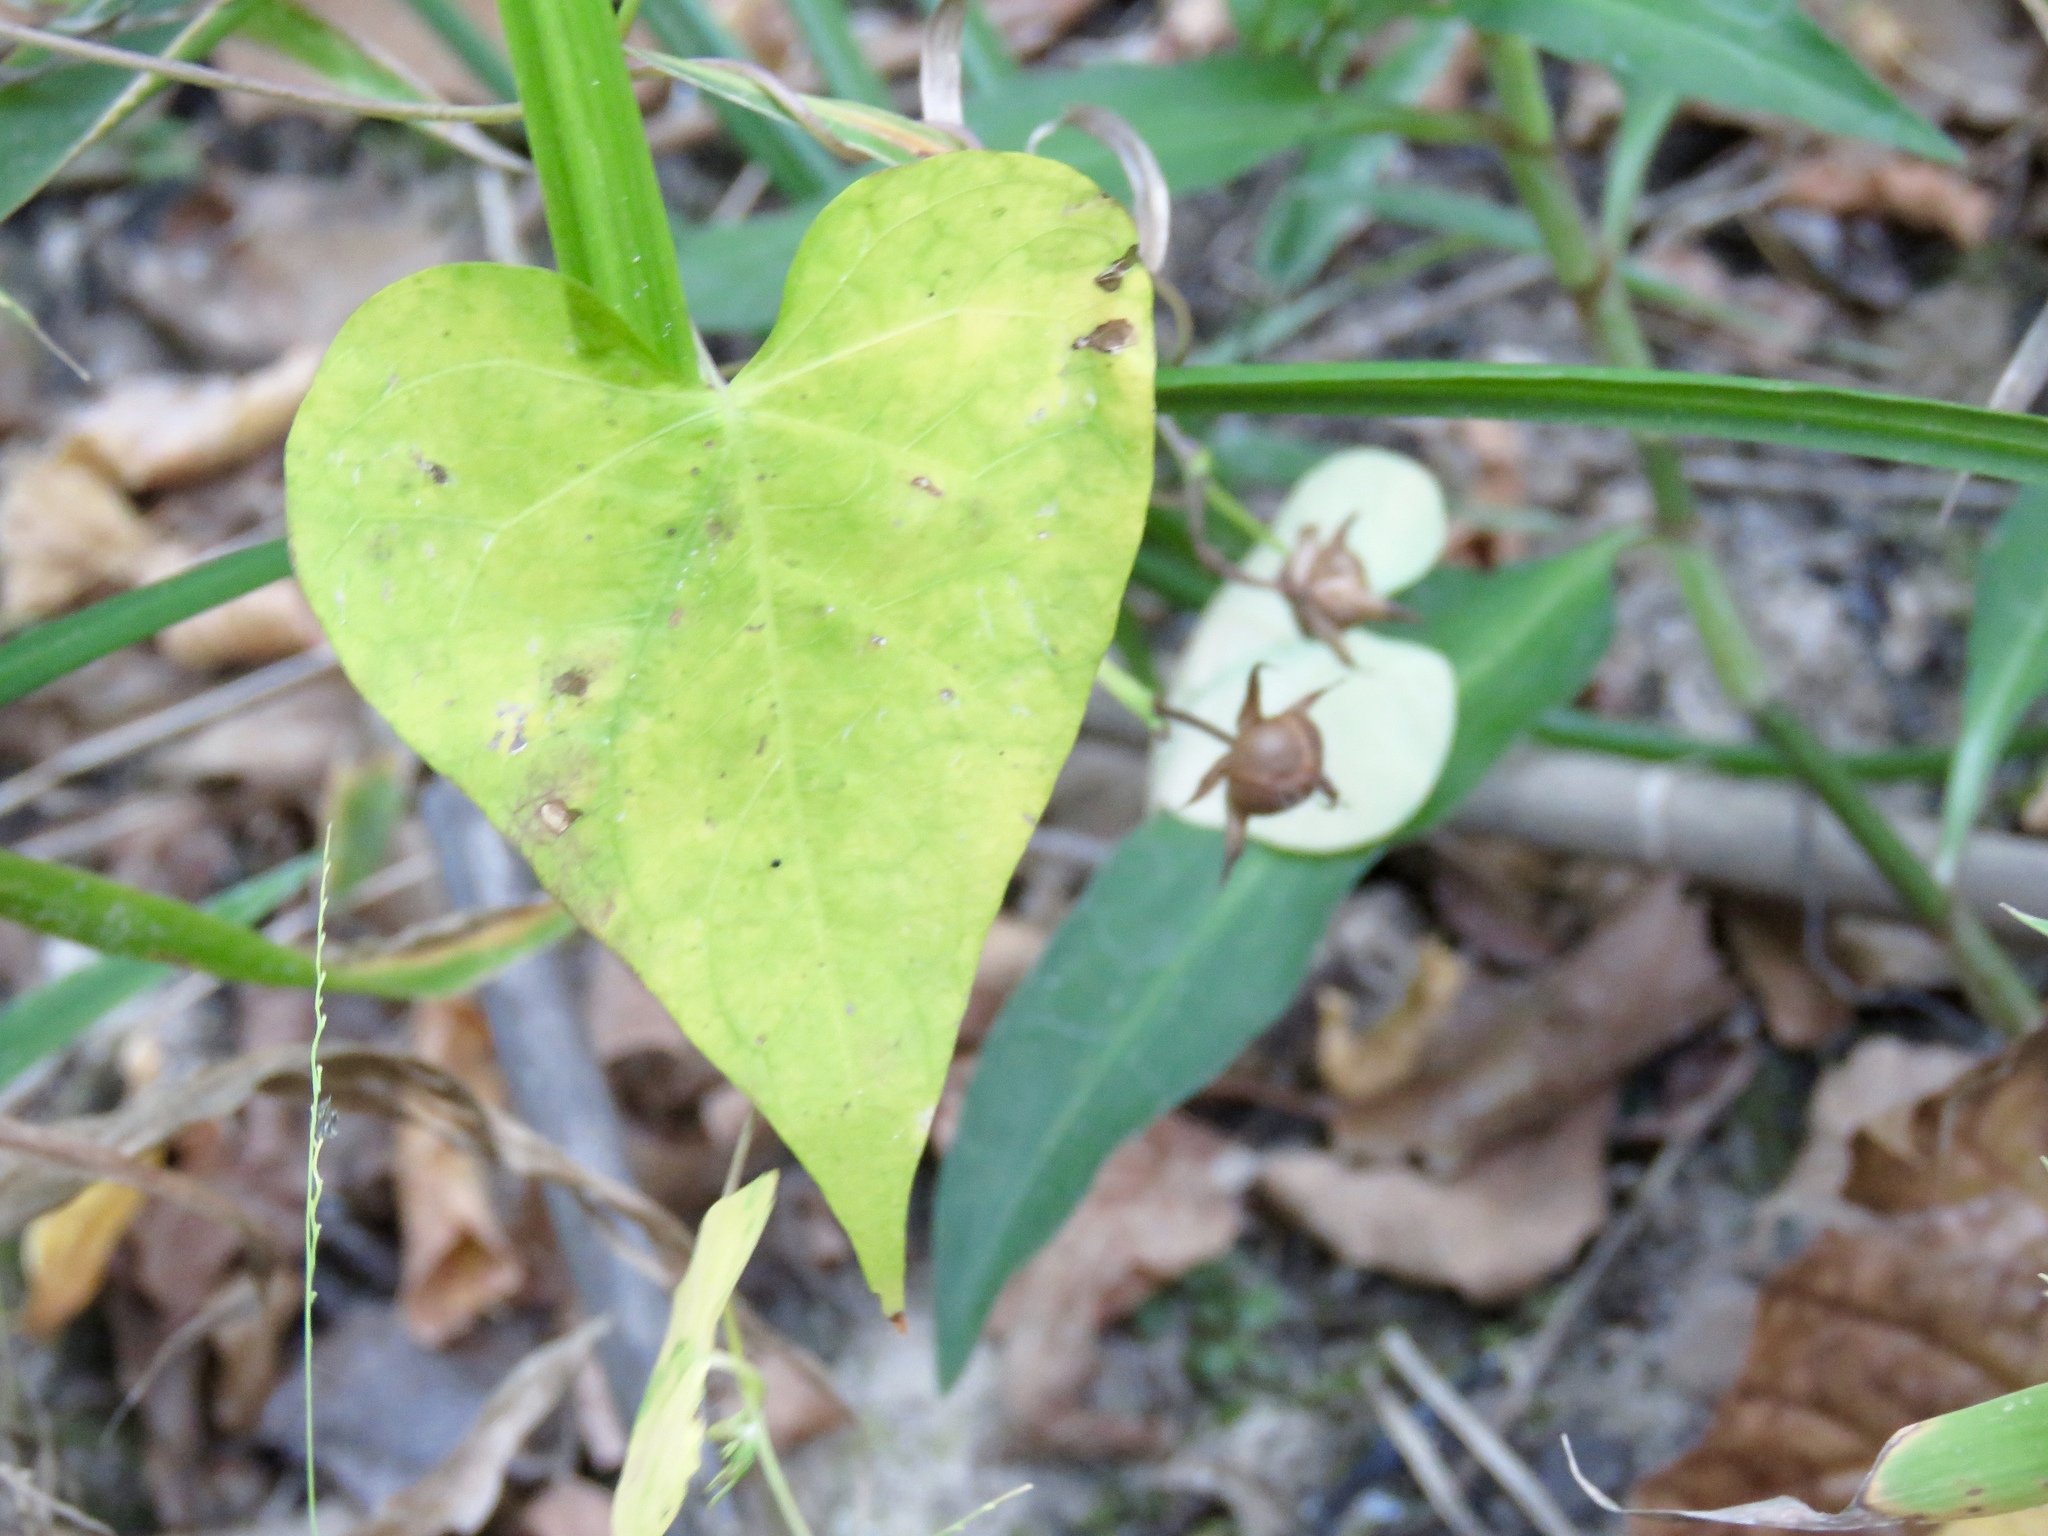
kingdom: Plantae
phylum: Tracheophyta
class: Magnoliopsida
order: Solanales
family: Convolvulaceae
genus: Ipomoea
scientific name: Ipomoea cordatotriloba
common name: Cotton morning glory
